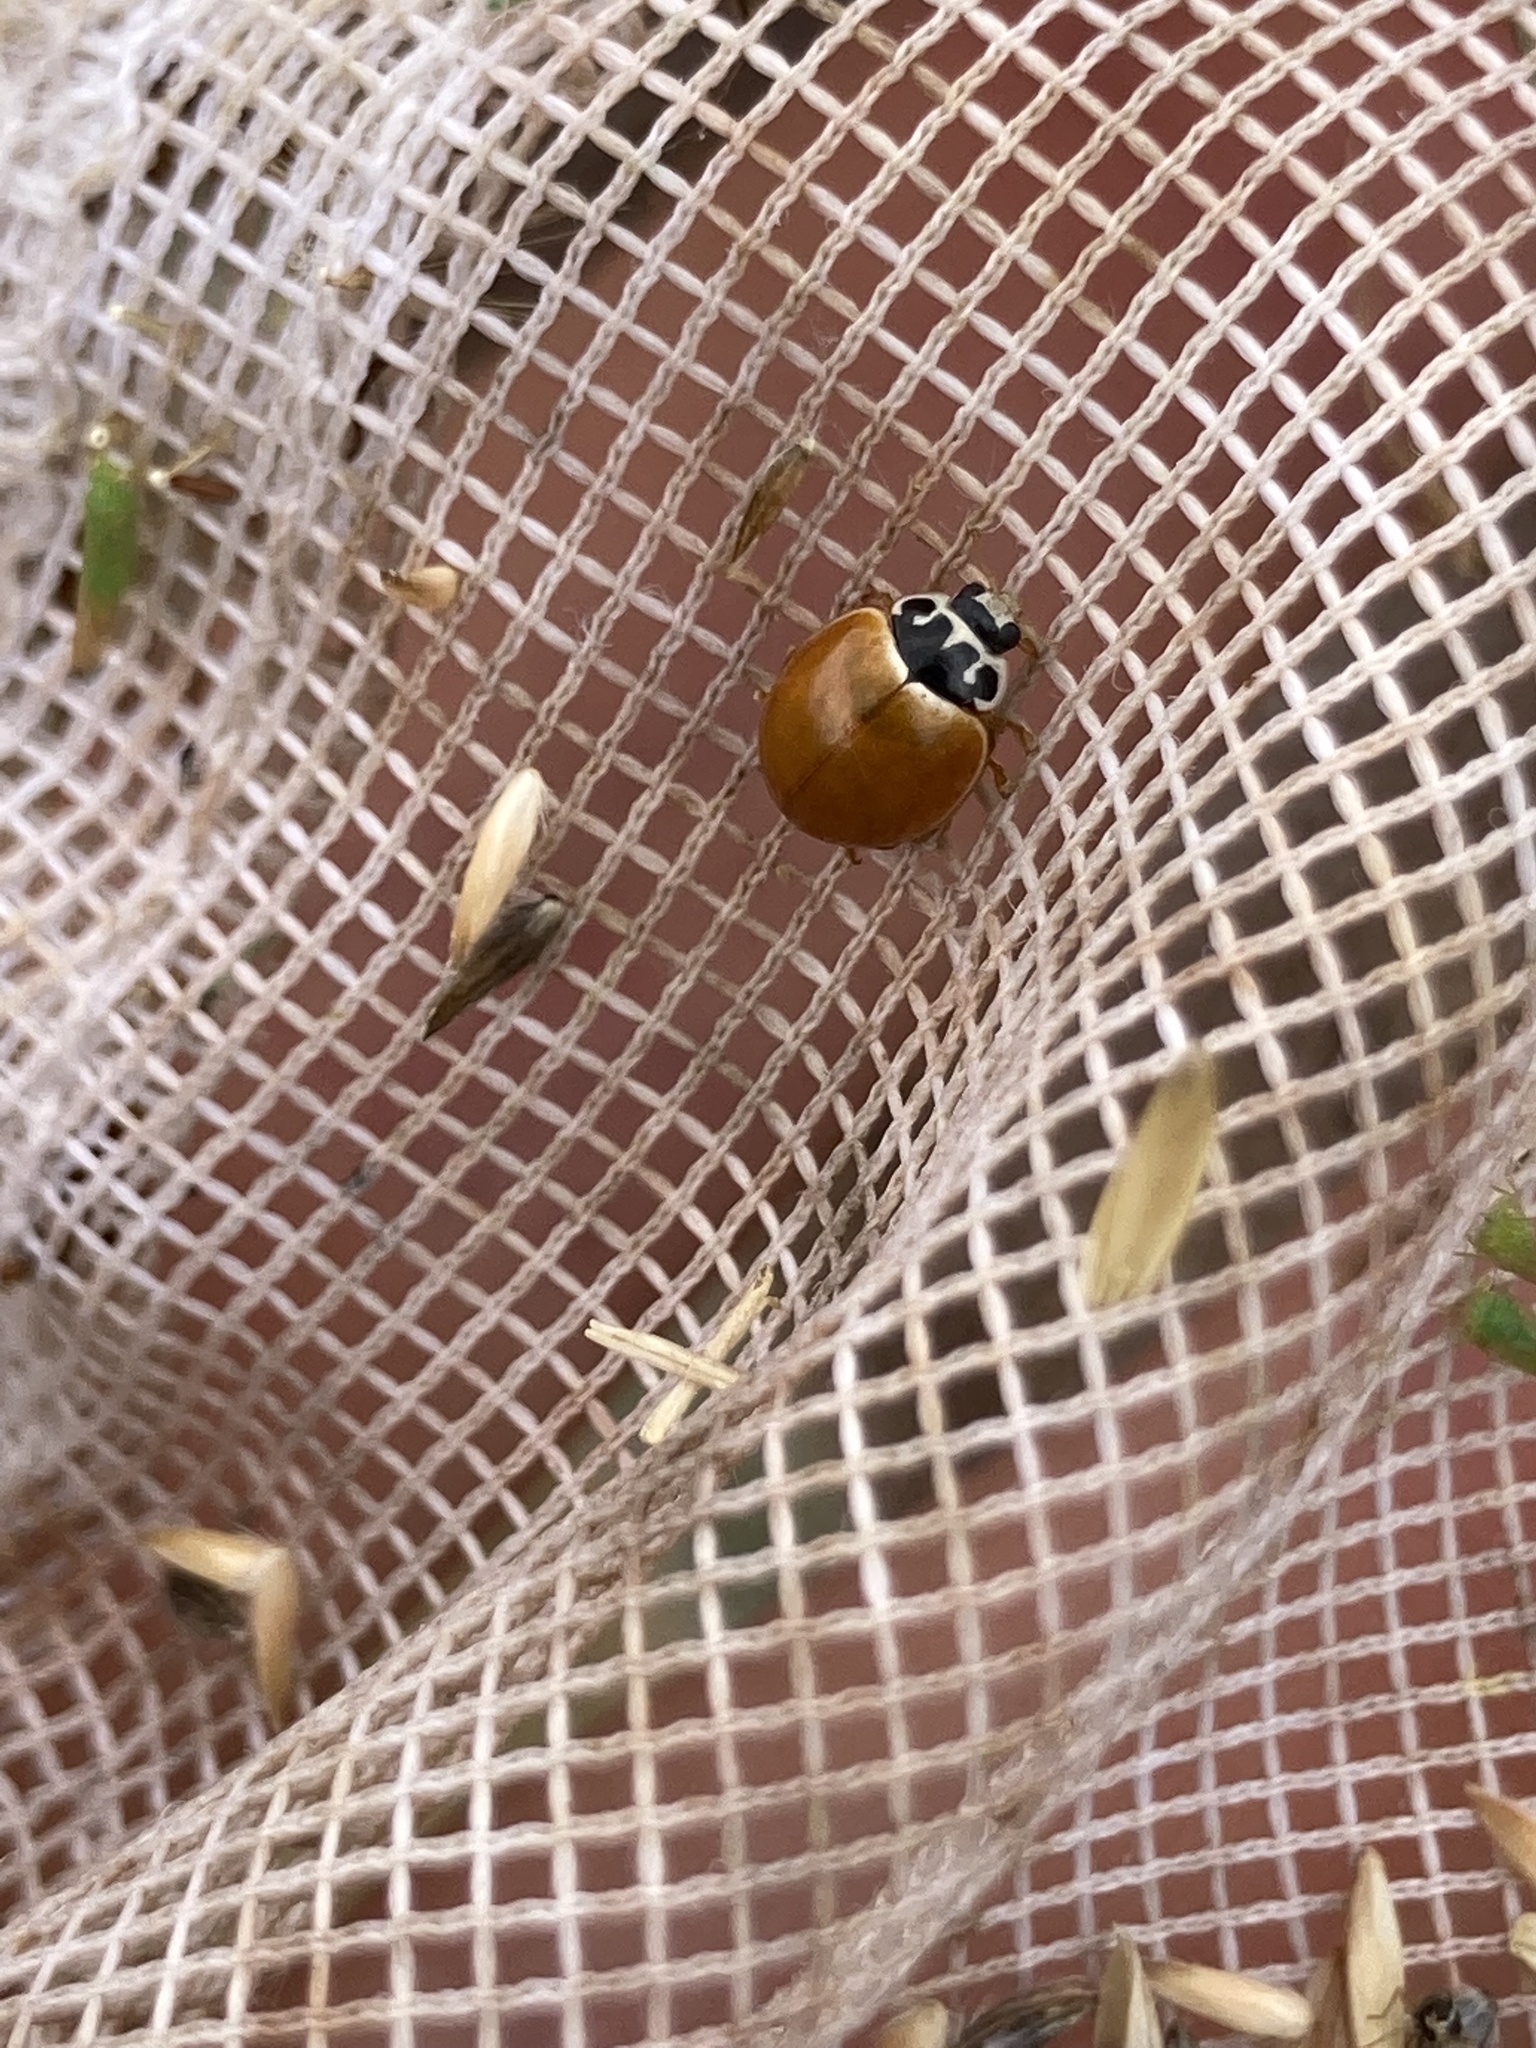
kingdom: Animalia
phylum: Arthropoda
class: Insecta
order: Coleoptera
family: Coccinellidae
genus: Cycloneda
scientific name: Cycloneda munda
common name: Polished lady beetle
